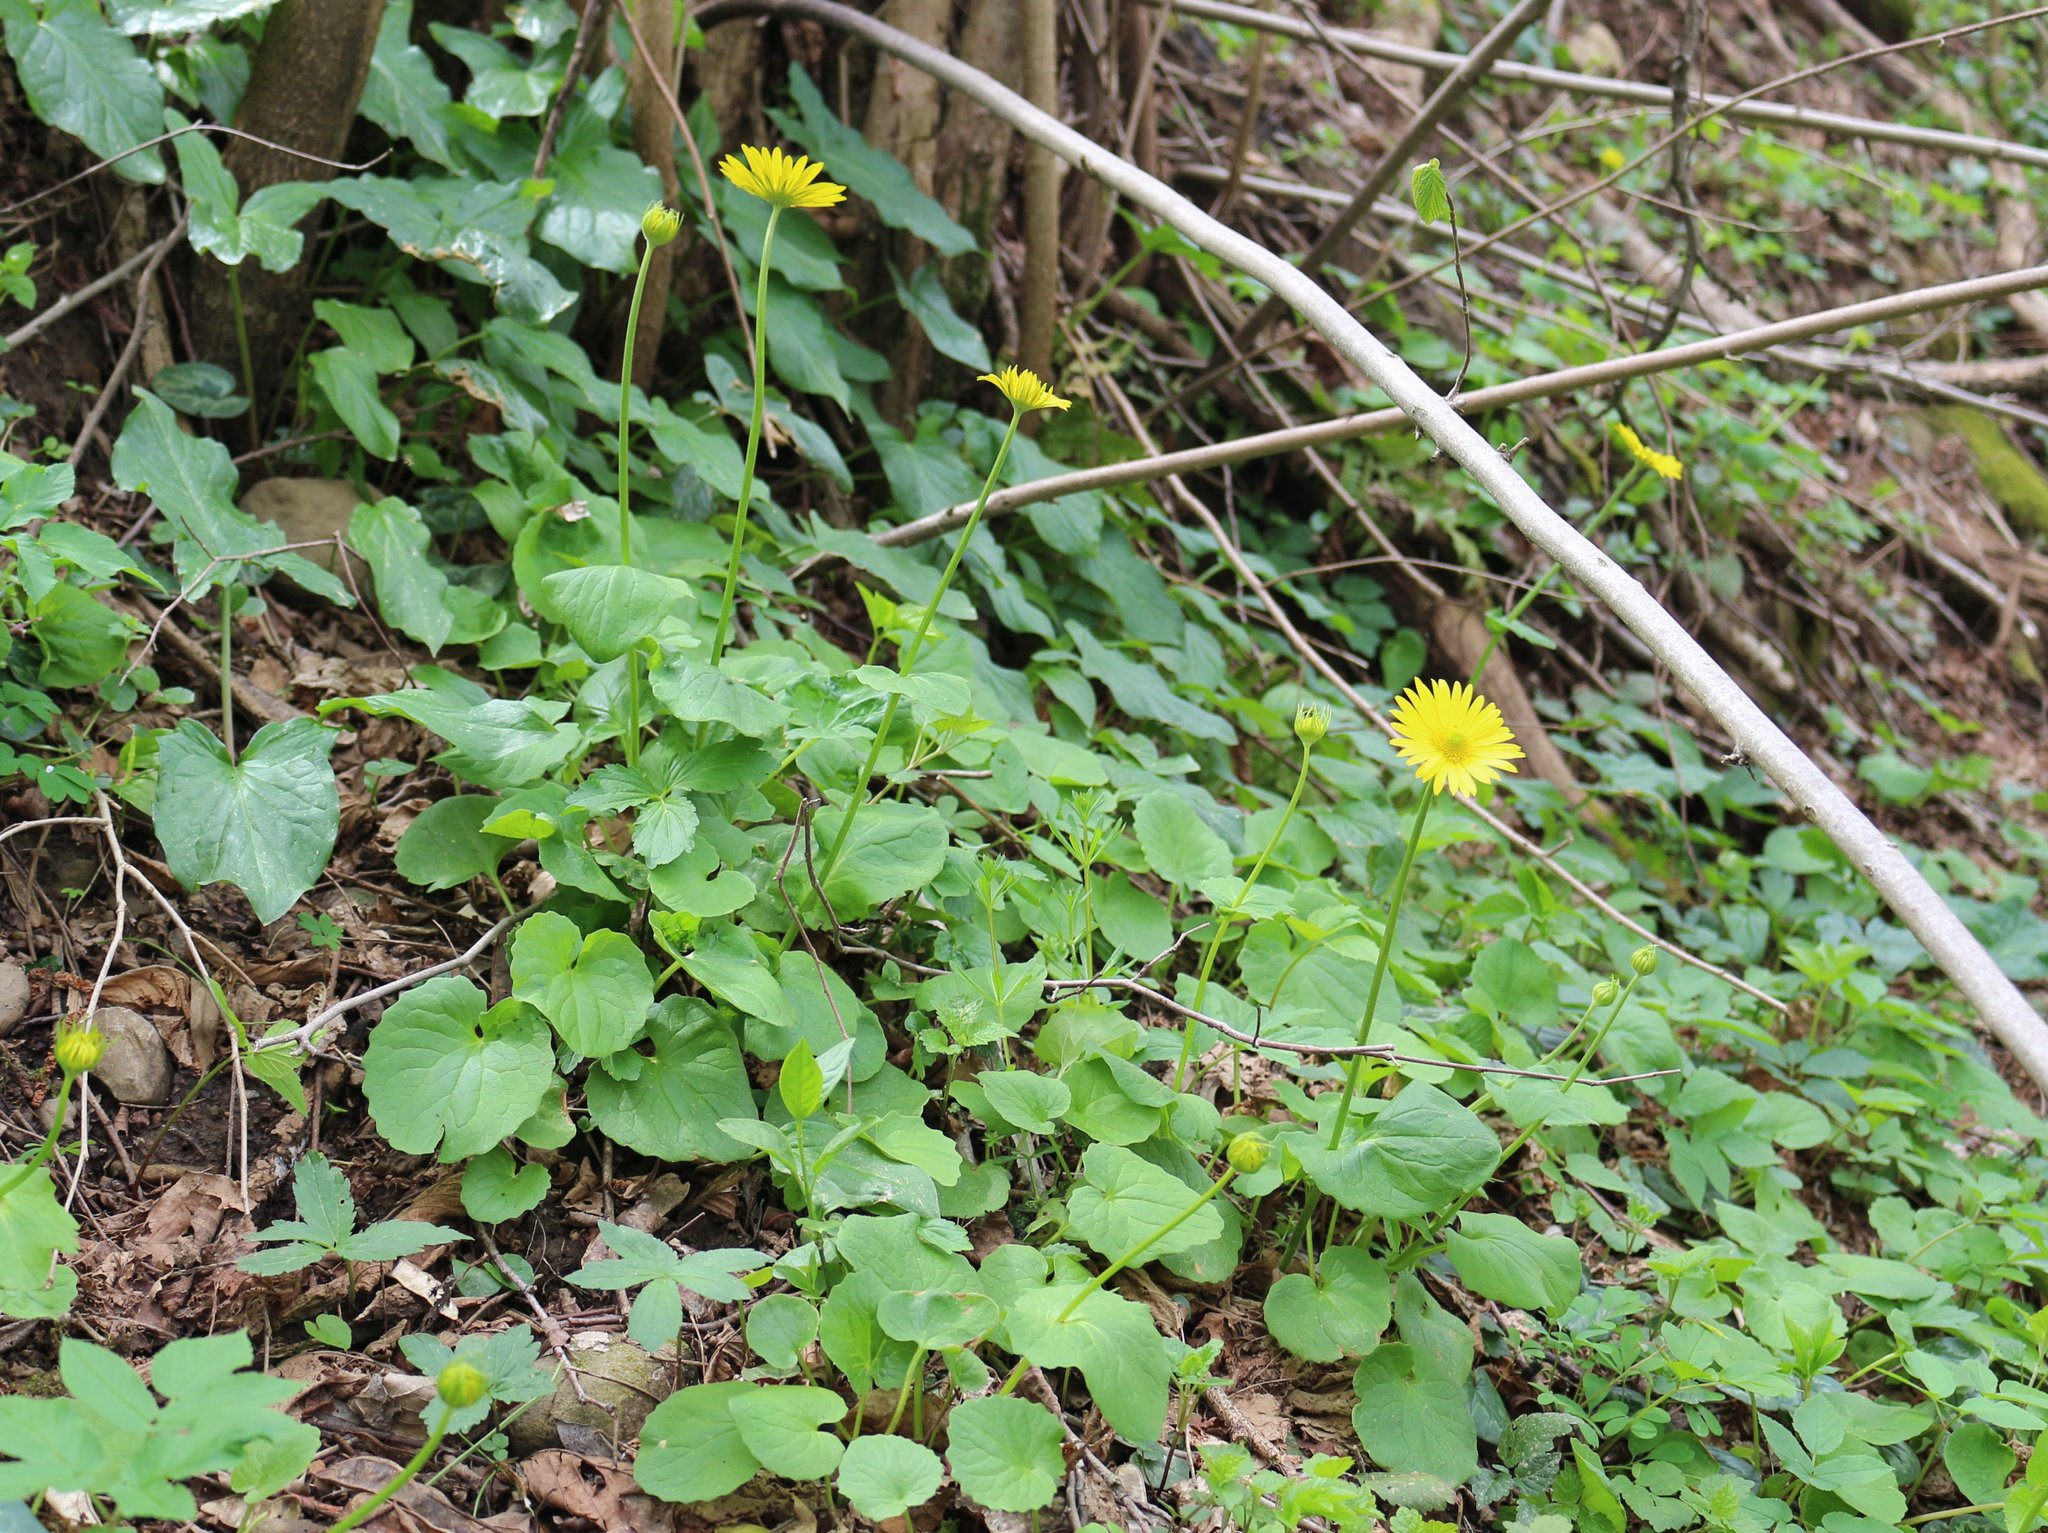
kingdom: Plantae
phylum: Tracheophyta
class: Magnoliopsida
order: Asterales
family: Asteraceae
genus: Doronicum
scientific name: Doronicum
